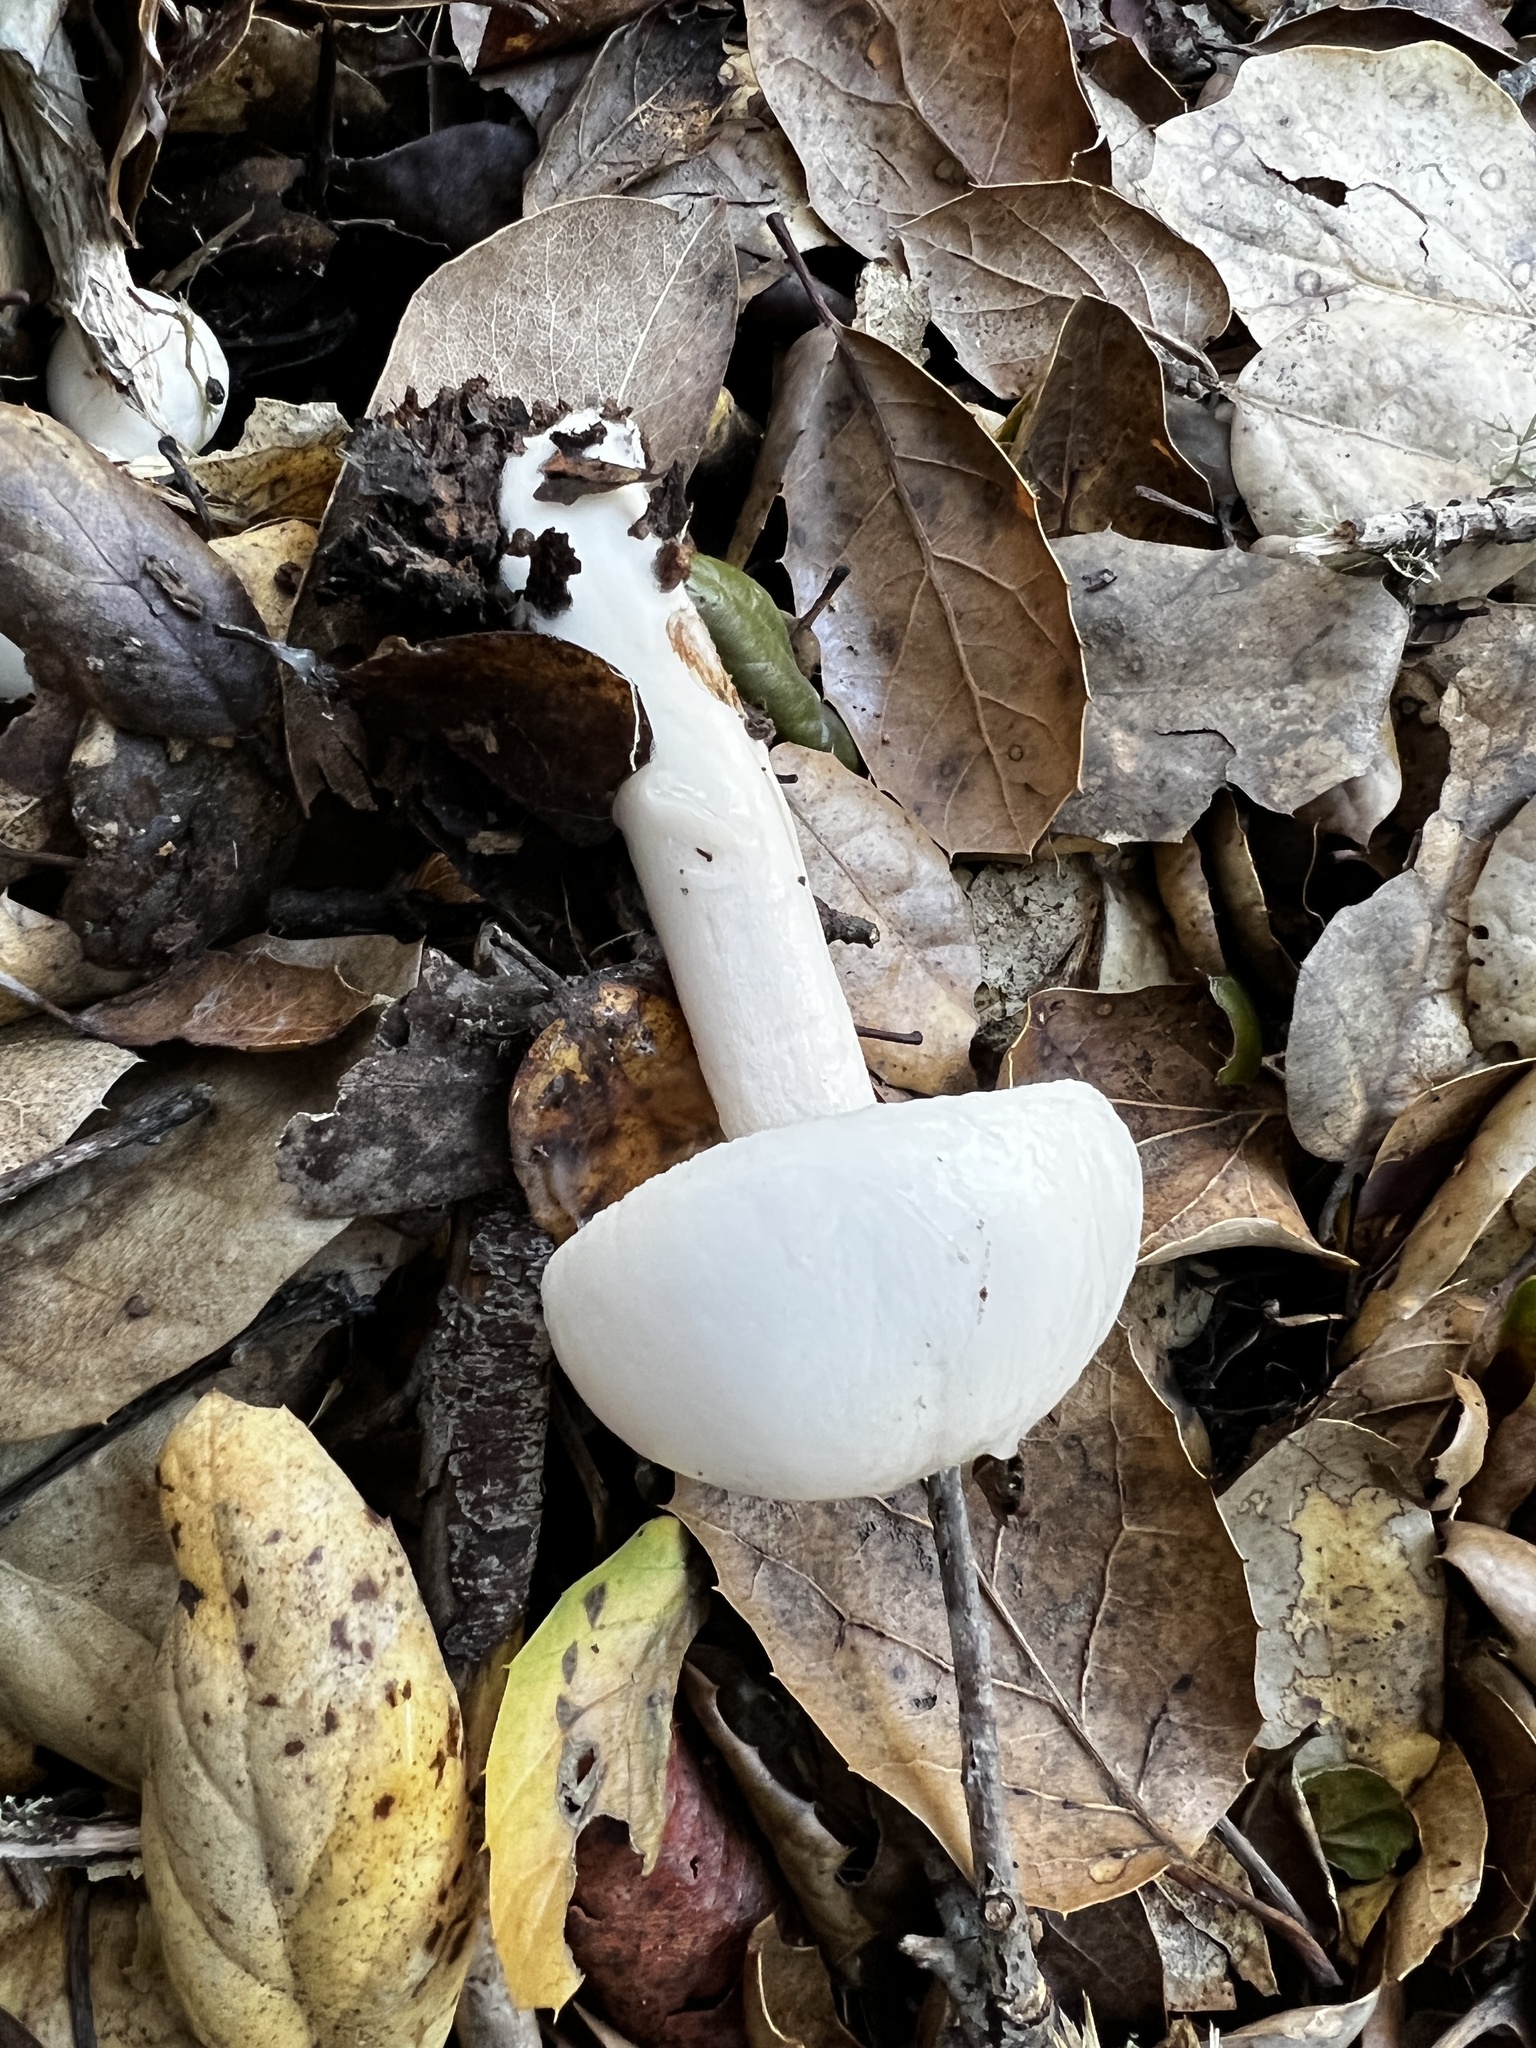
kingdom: Fungi
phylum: Basidiomycota
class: Agaricomycetes
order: Agaricales
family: Hygrophoraceae
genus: Hygrophorus
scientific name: Hygrophorus eburneus
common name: Ivory wax-cap
